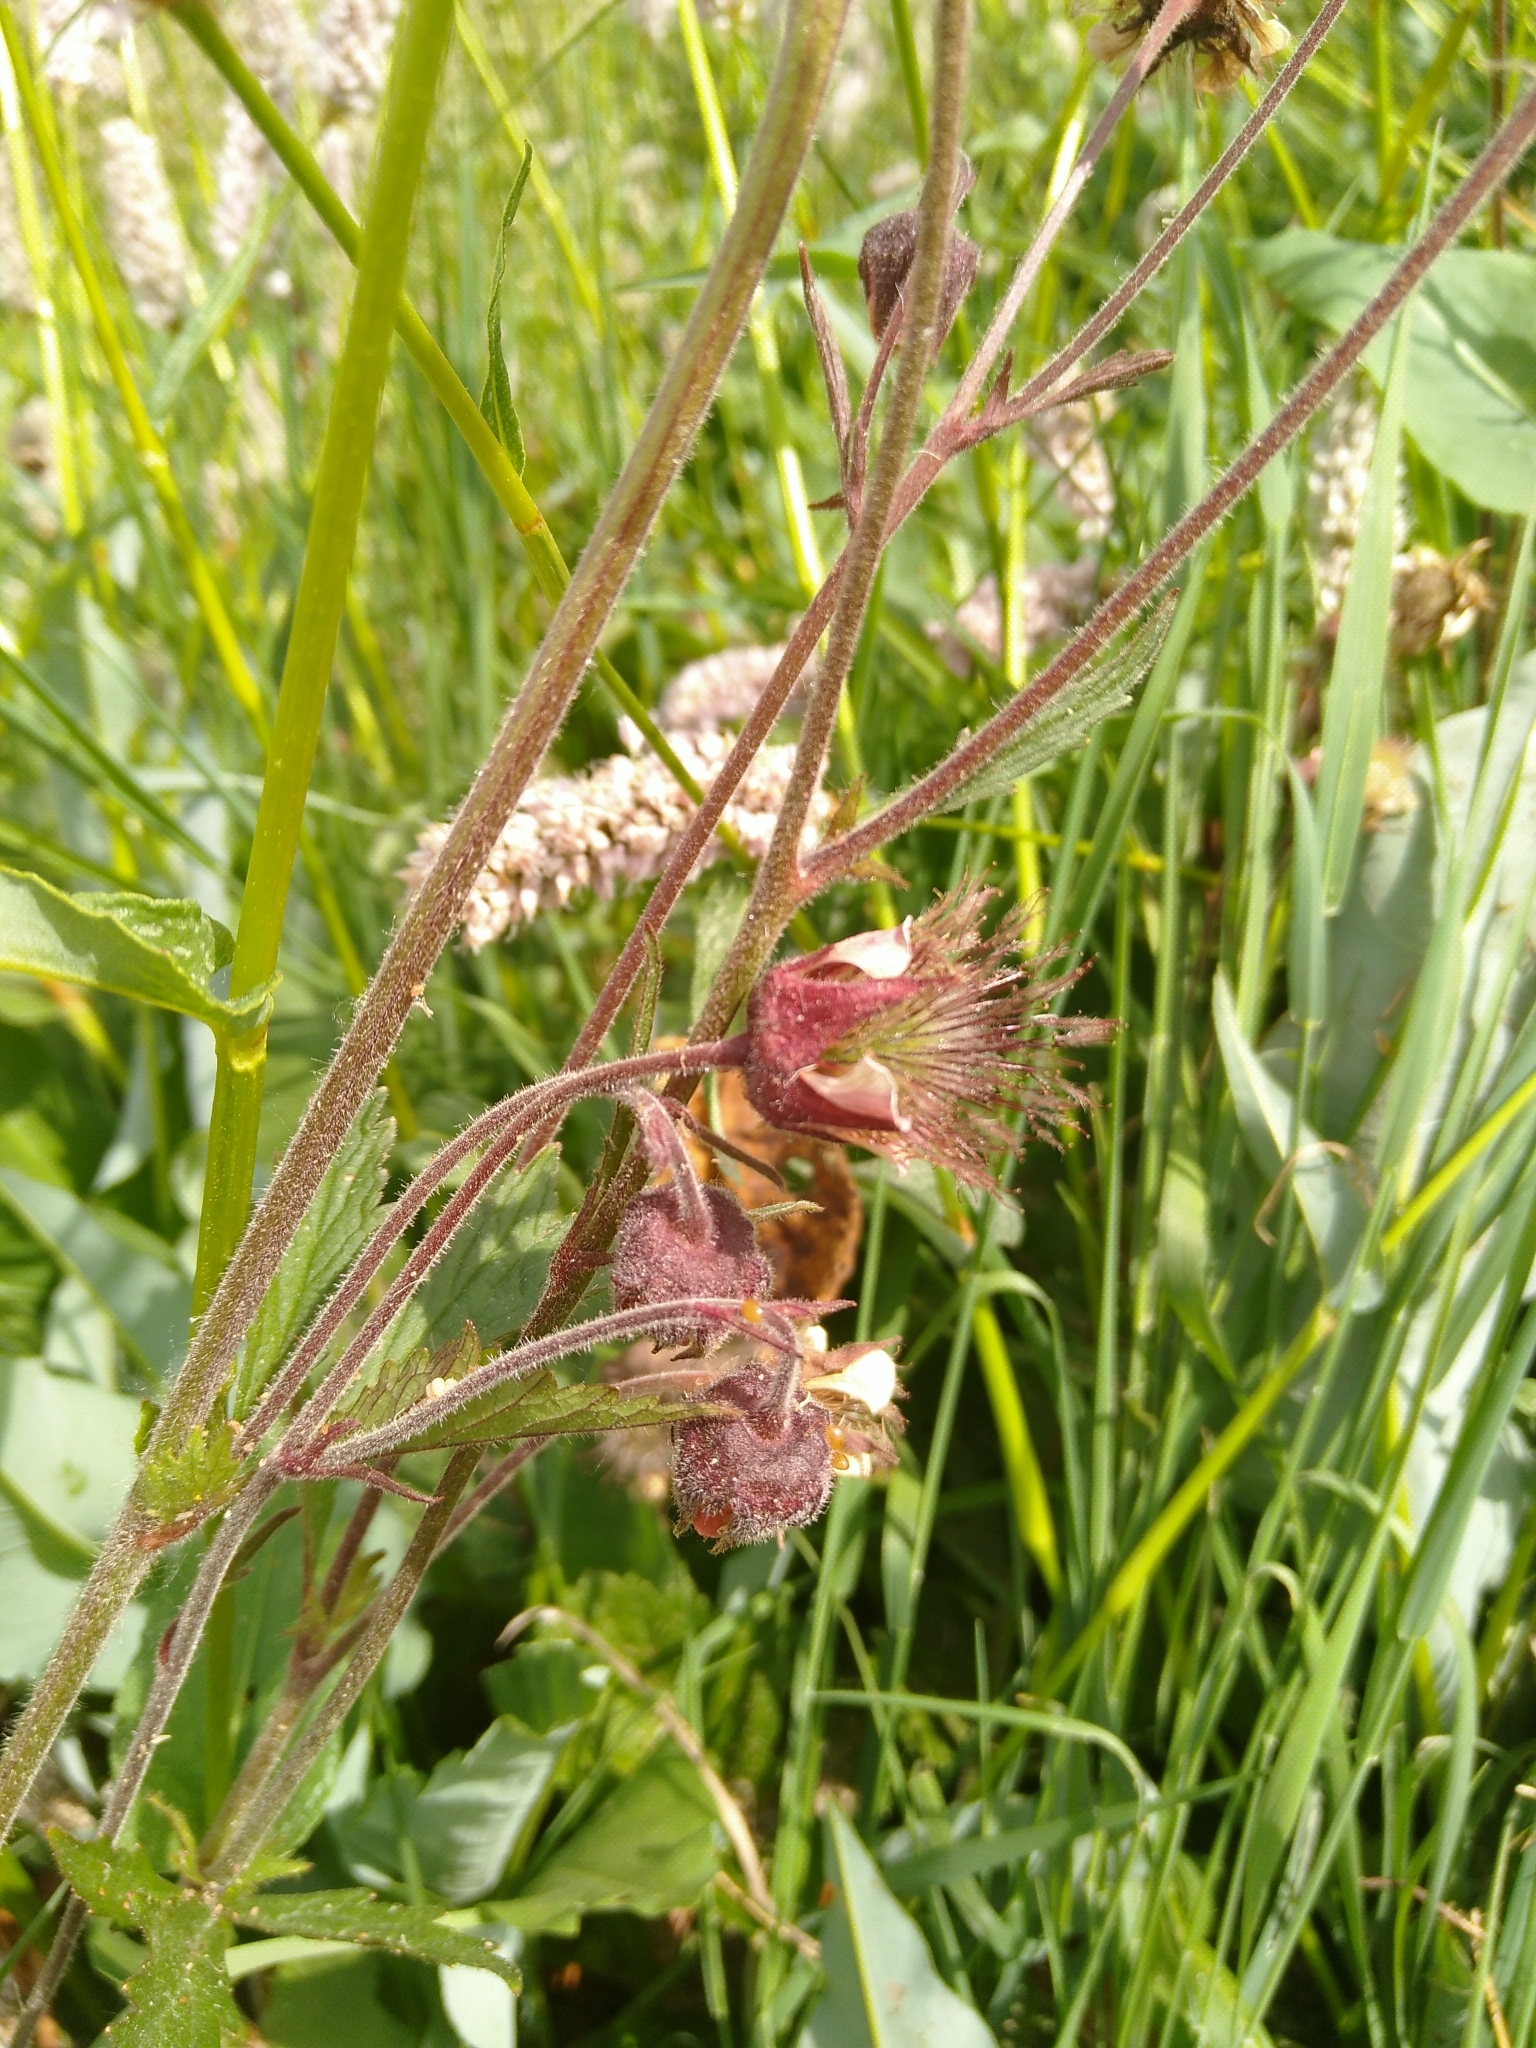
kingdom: Plantae
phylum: Tracheophyta
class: Magnoliopsida
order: Rosales
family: Rosaceae
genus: Geum
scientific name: Geum rivale
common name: Water avens
